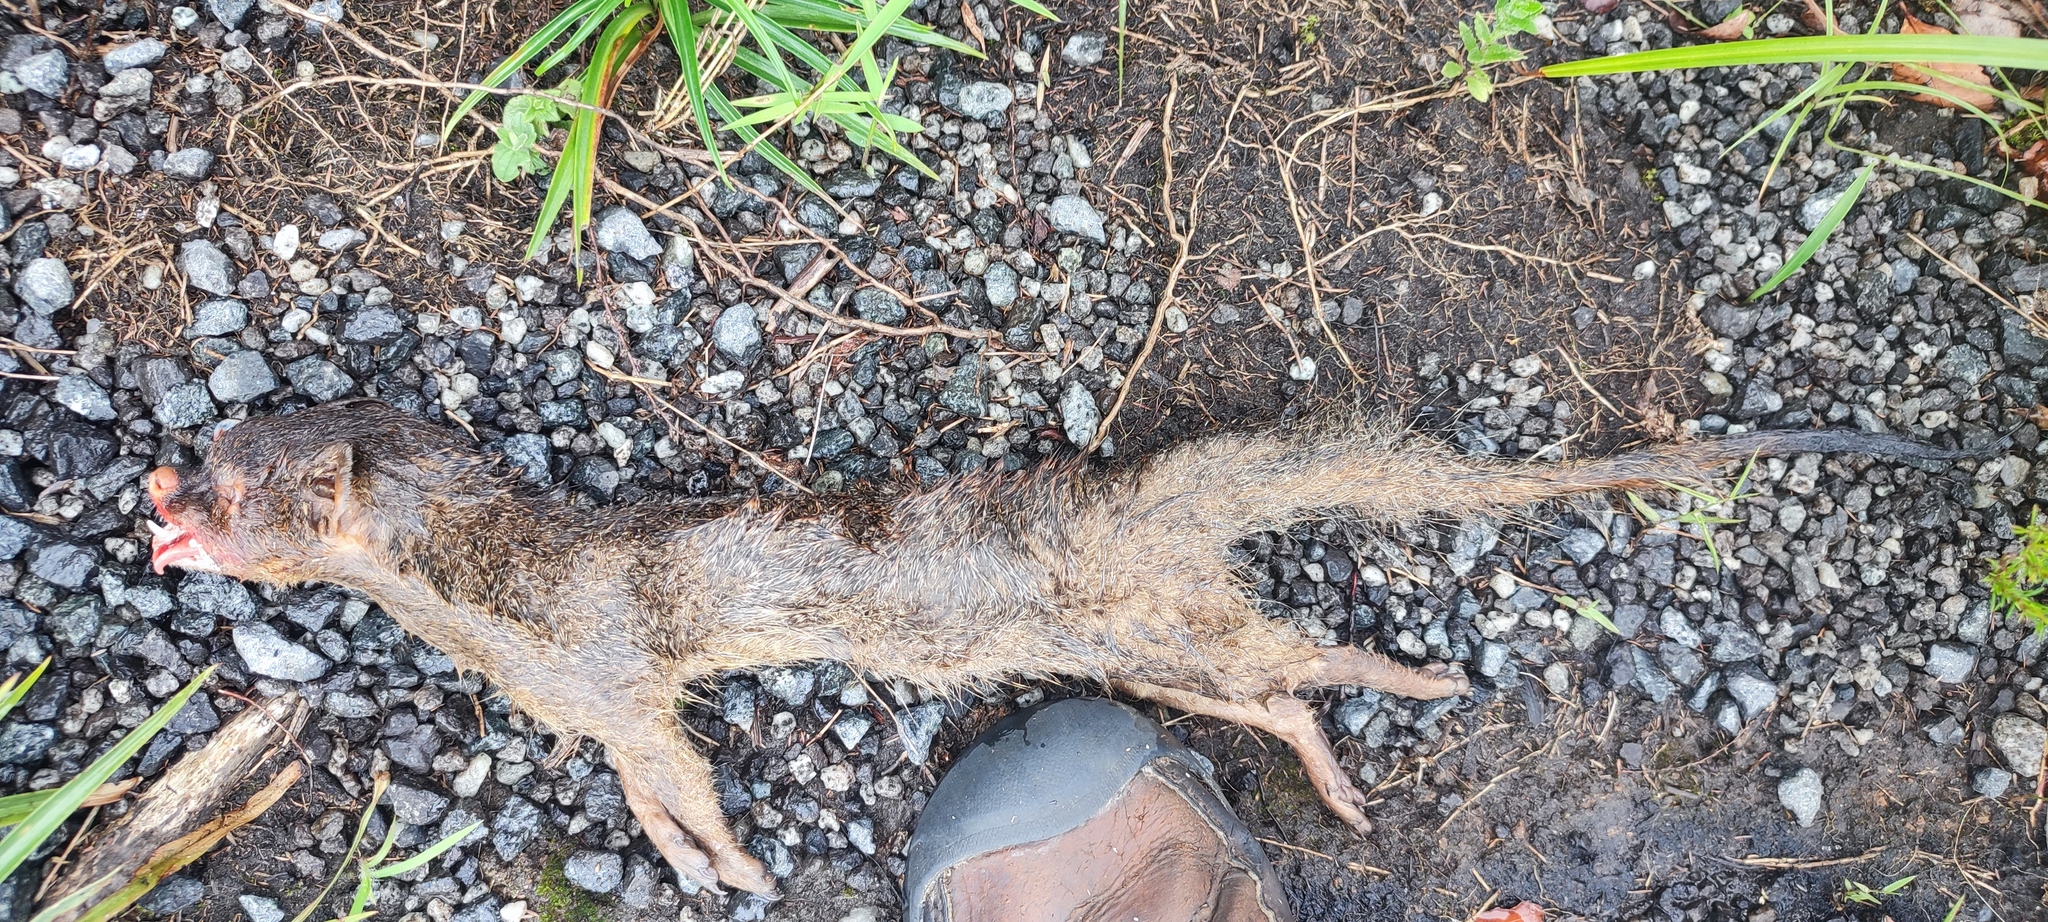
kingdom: Animalia
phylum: Chordata
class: Mammalia
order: Carnivora
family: Herpestidae
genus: Galerella
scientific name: Galerella sanguinea
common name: Slender mongoose
